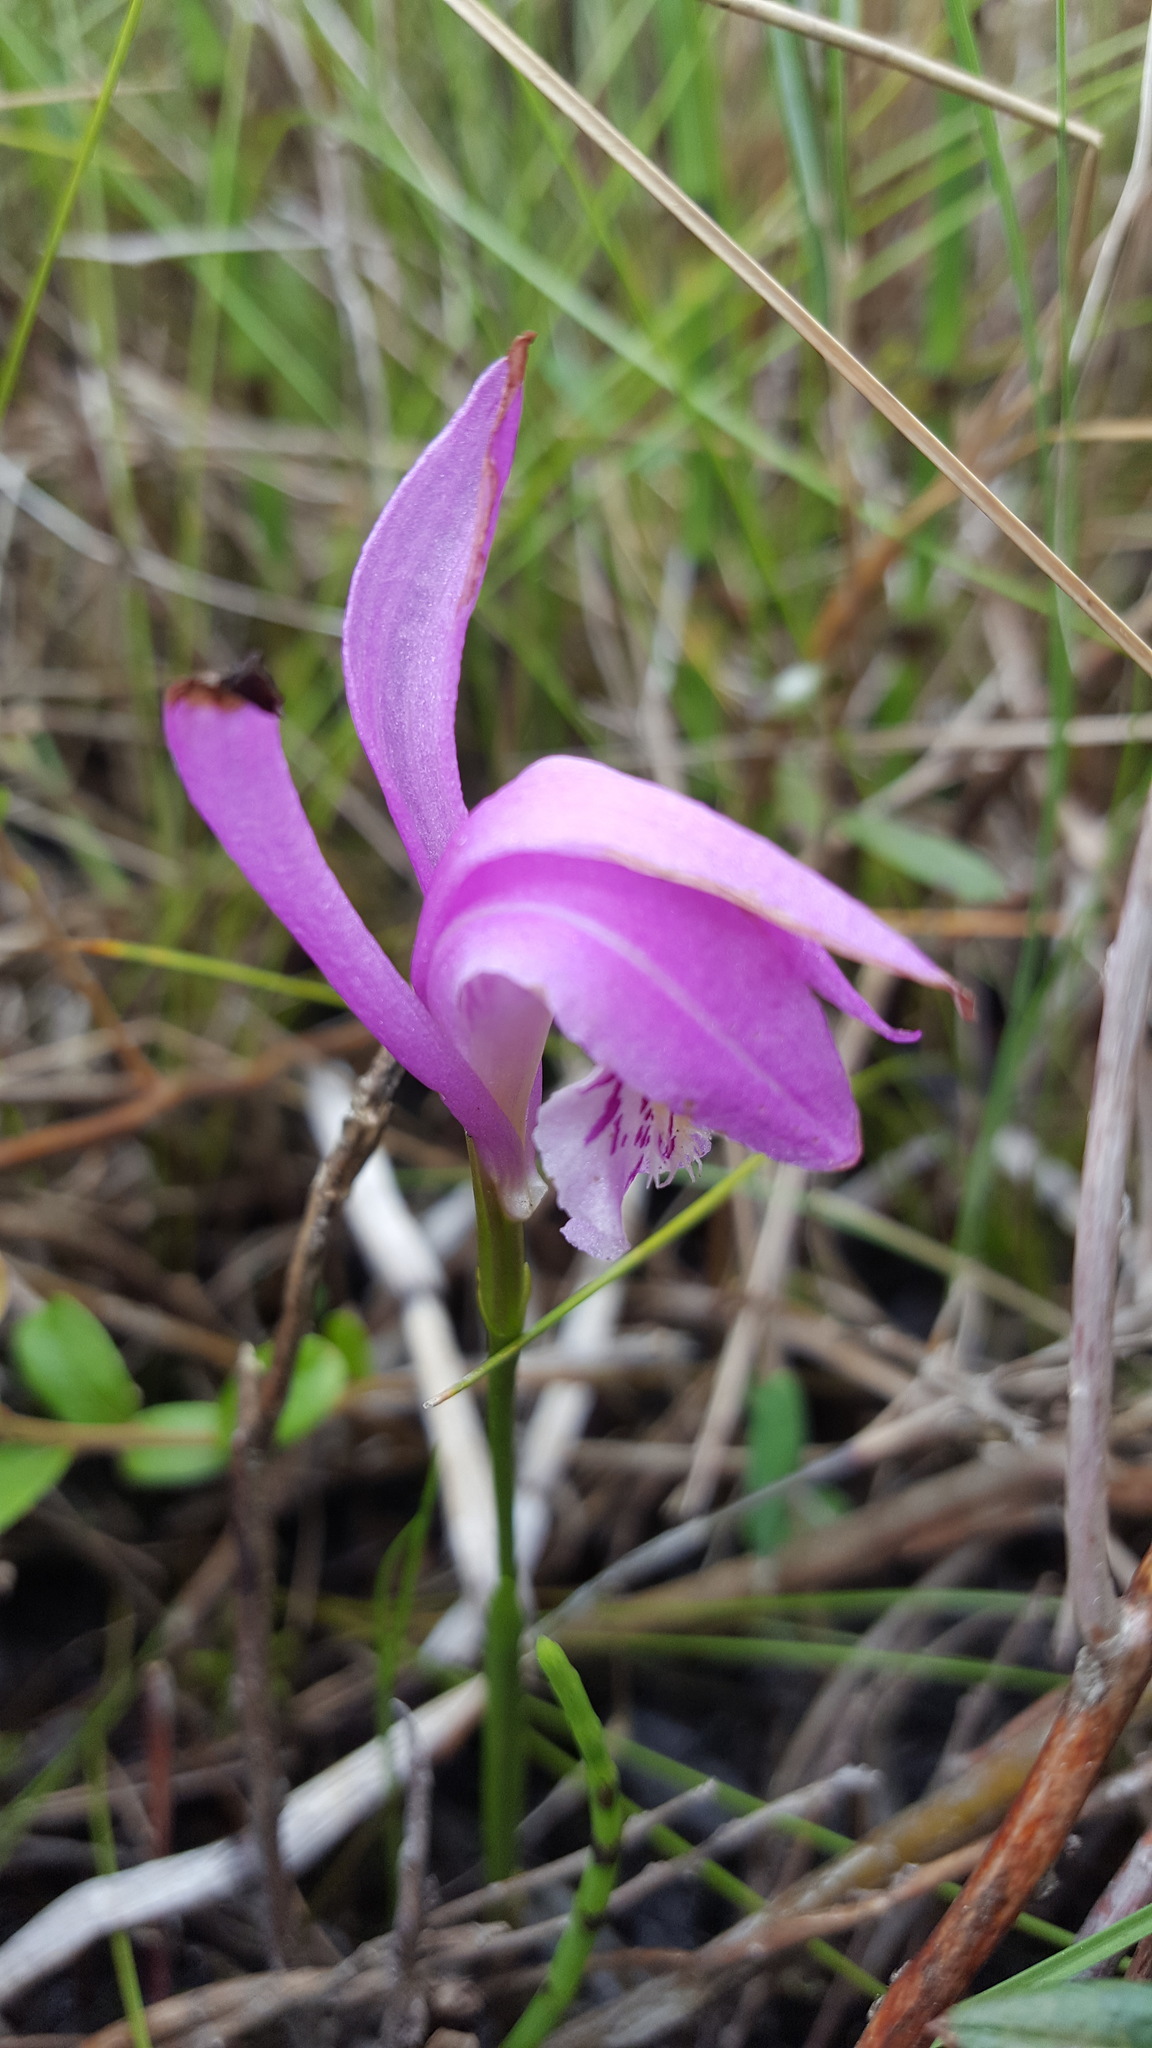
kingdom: Plantae
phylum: Tracheophyta
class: Liliopsida
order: Asparagales
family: Orchidaceae
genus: Arethusa
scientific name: Arethusa bulbosa
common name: Arethusa
